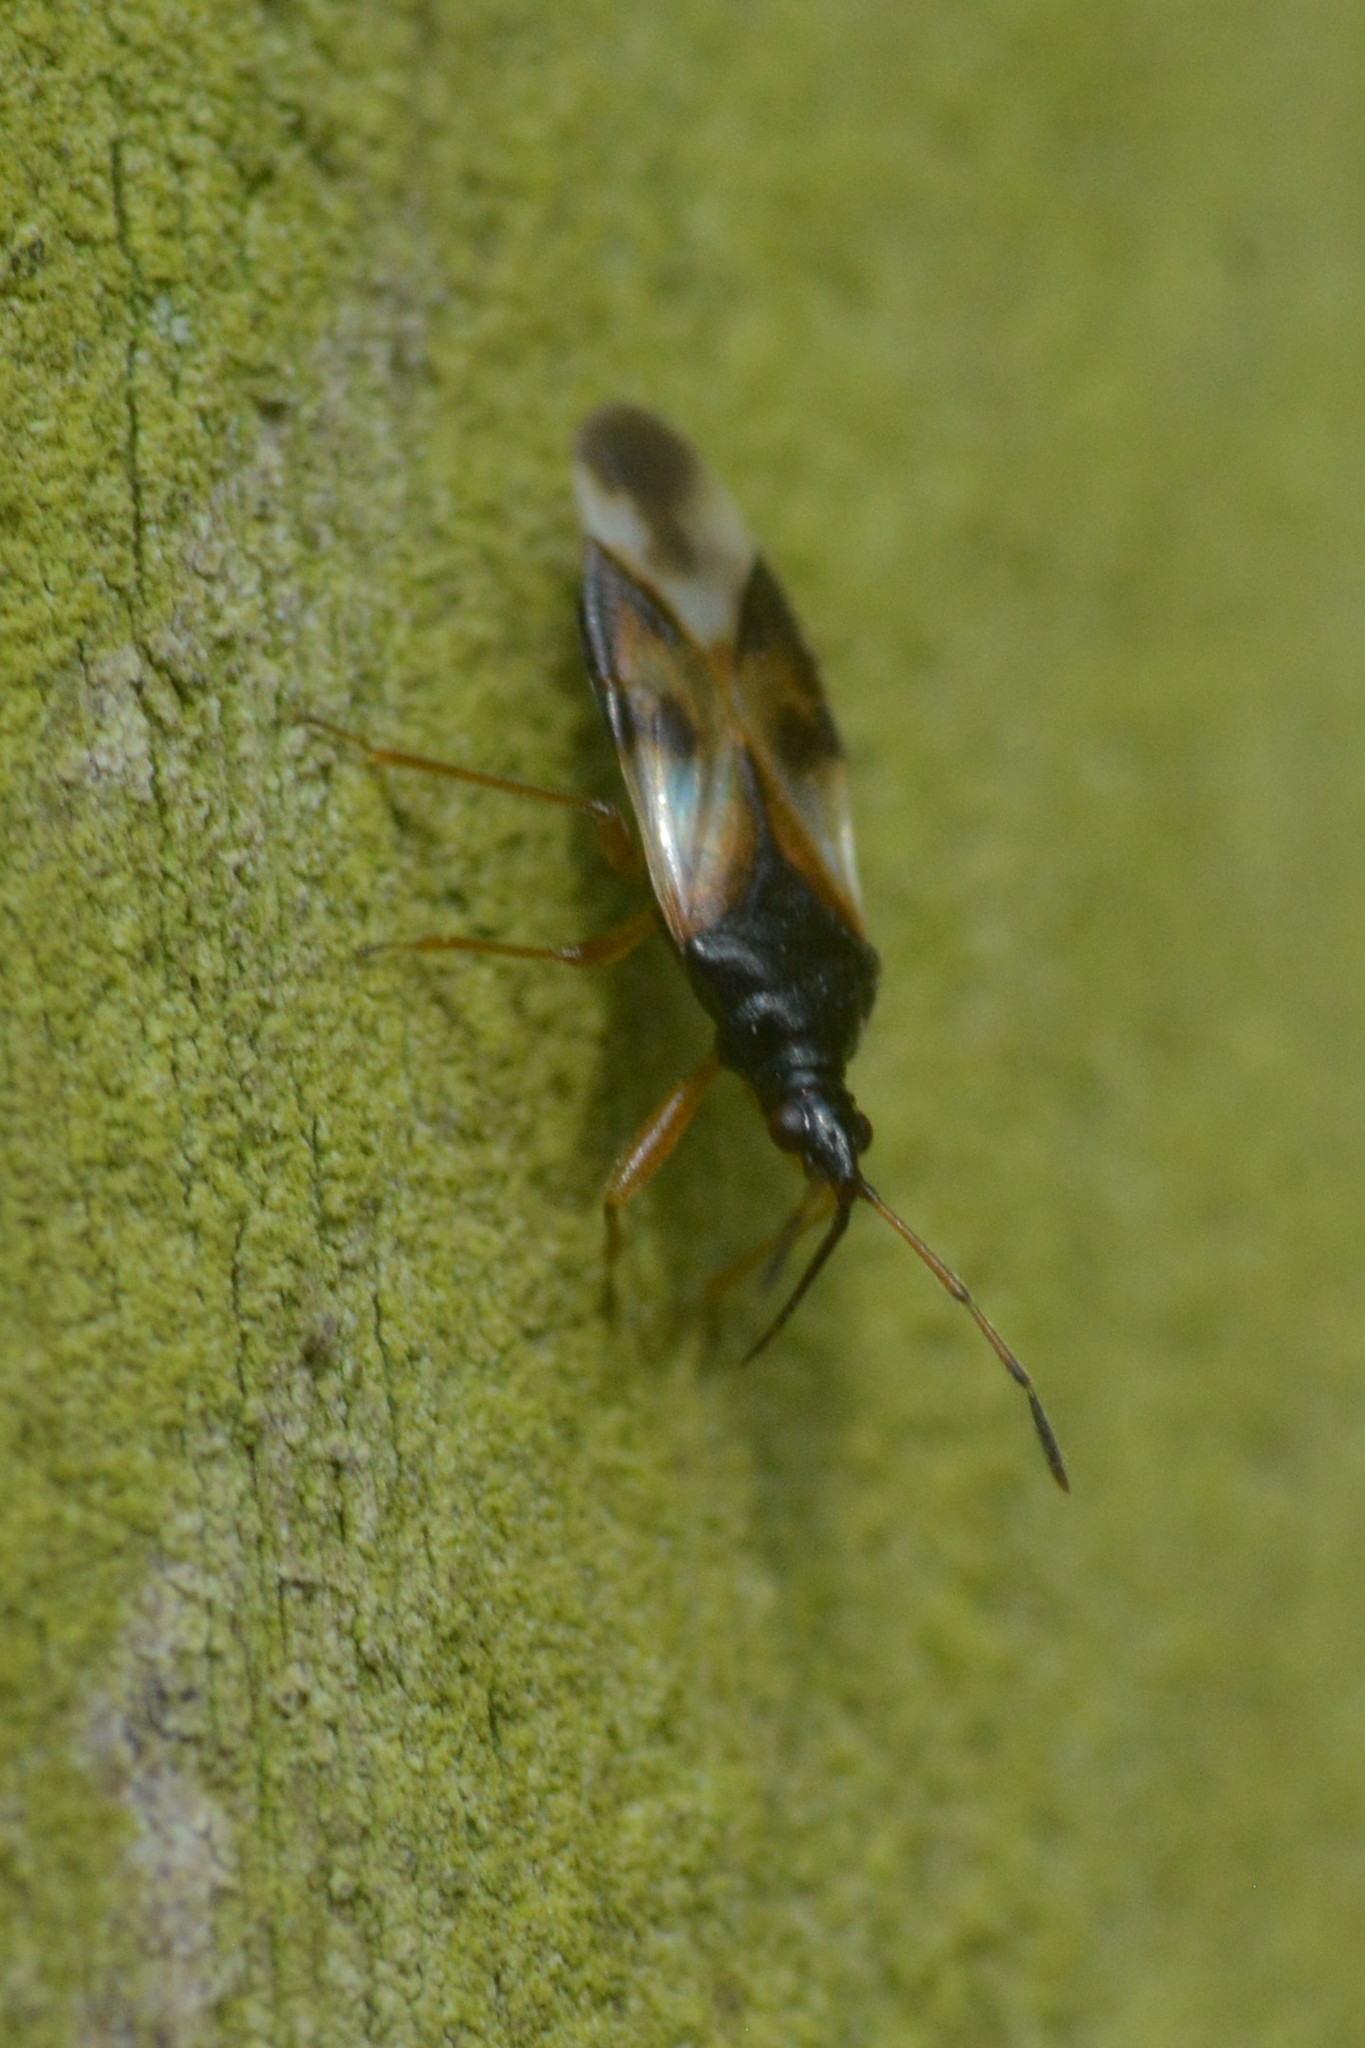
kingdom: Animalia
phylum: Arthropoda
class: Insecta
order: Hemiptera
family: Anthocoridae
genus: Anthocoris
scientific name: Anthocoris nemorum
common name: Minute pirate bug
